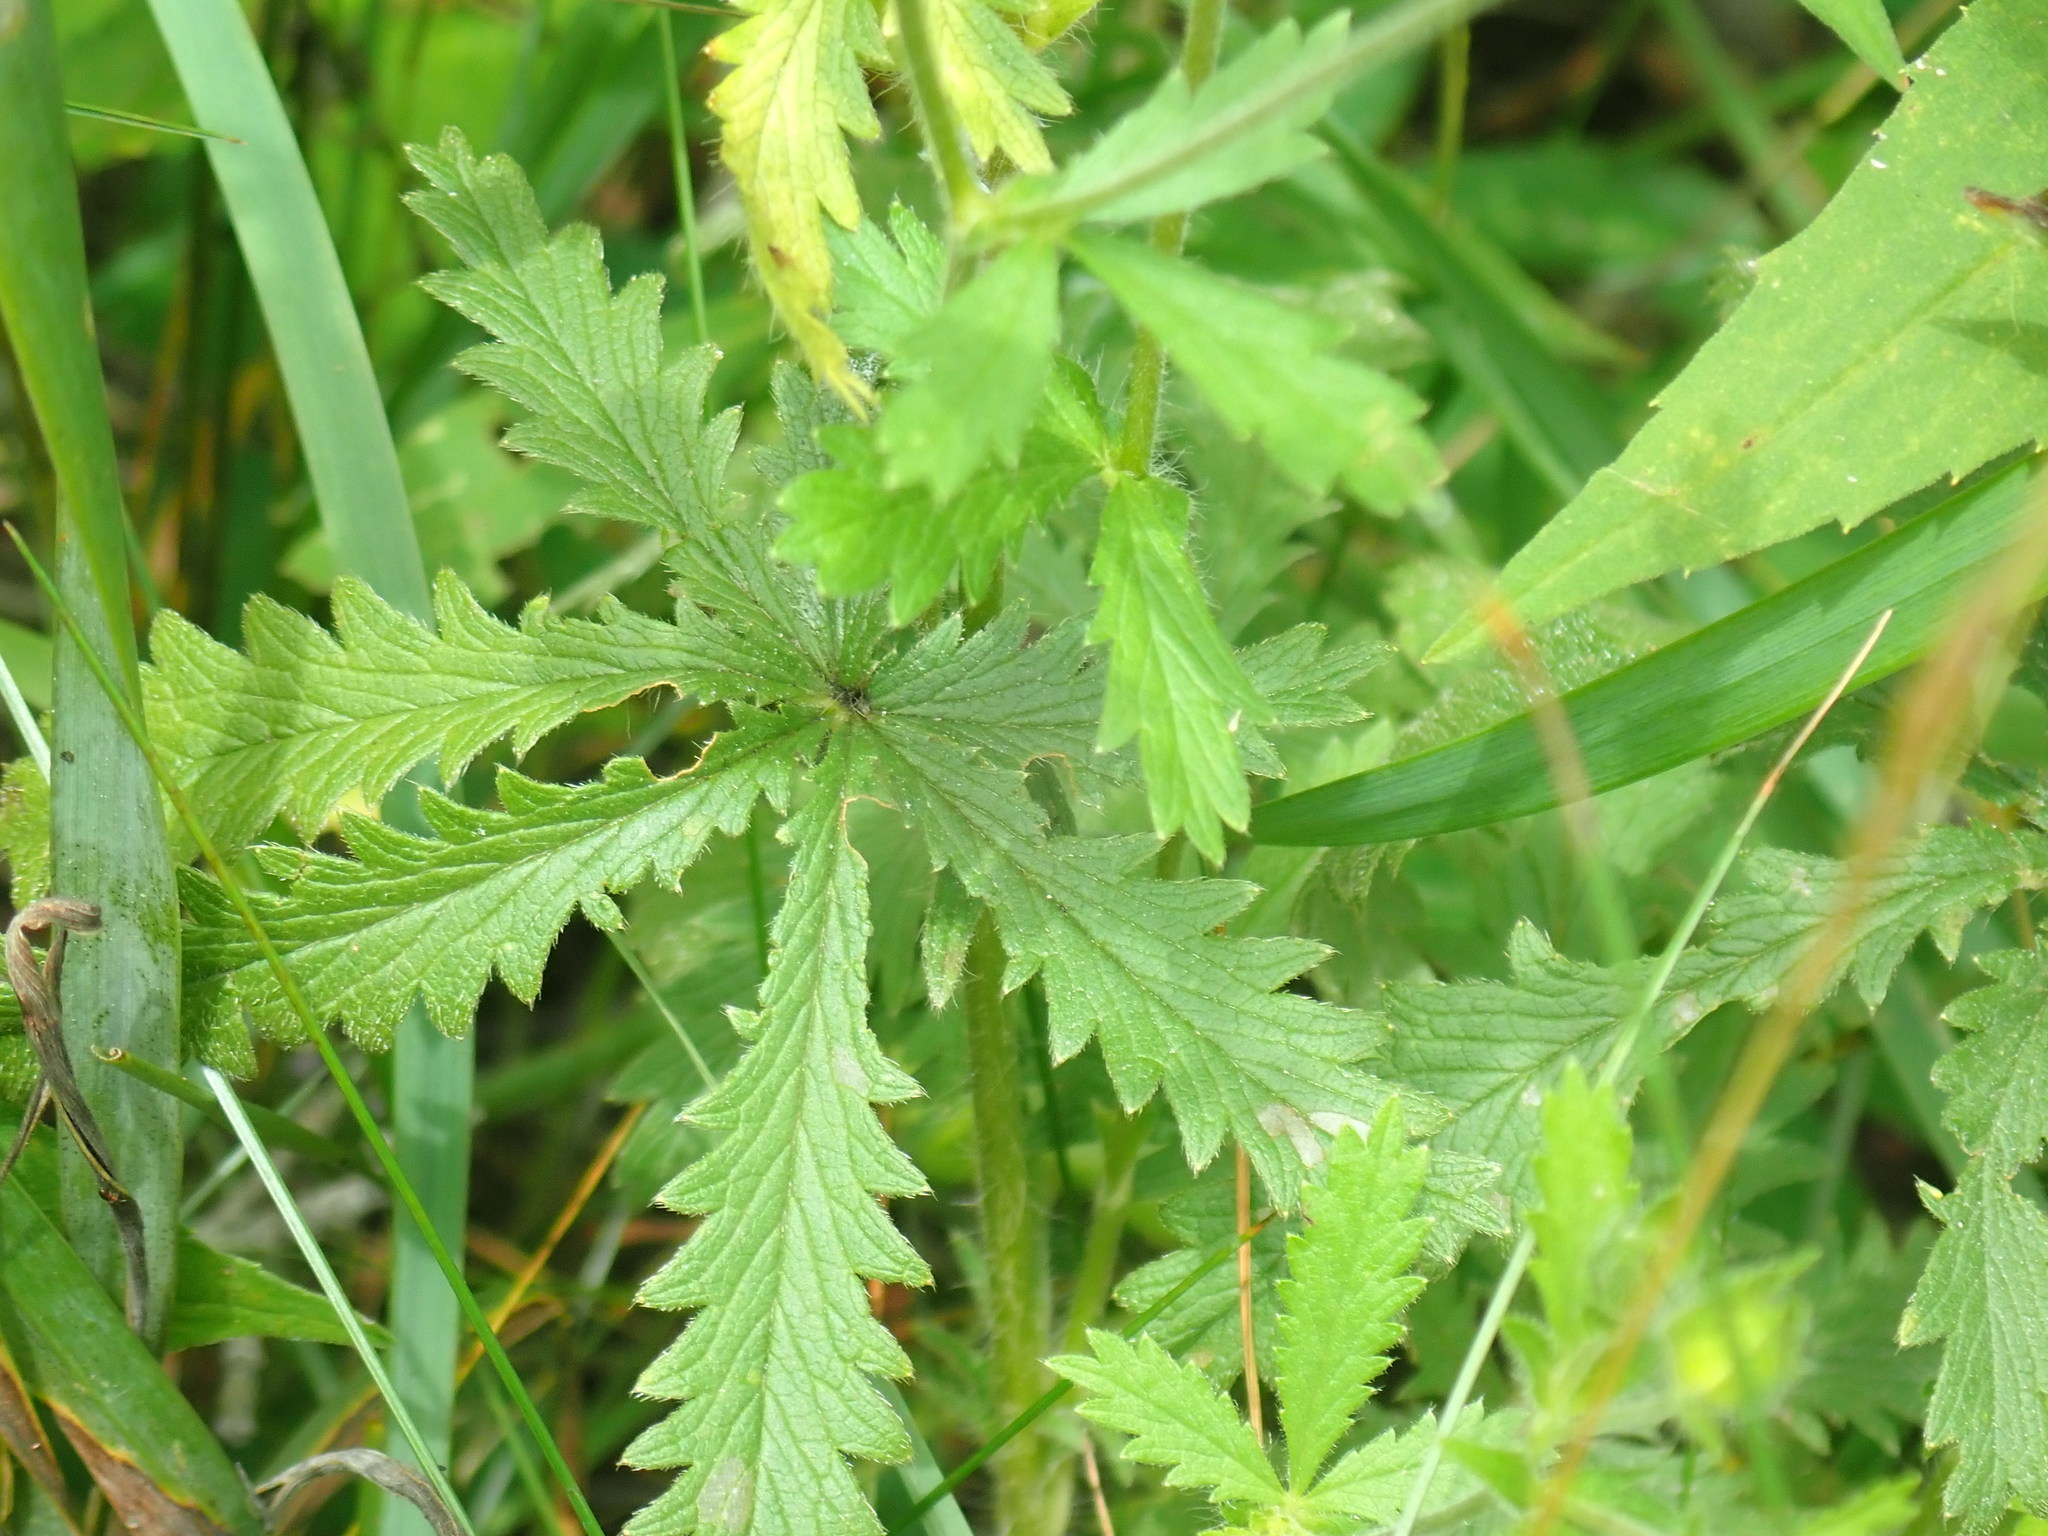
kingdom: Plantae
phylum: Tracheophyta
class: Magnoliopsida
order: Rosales
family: Rosaceae
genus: Potentilla
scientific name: Potentilla recta
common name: Sulphur cinquefoil
